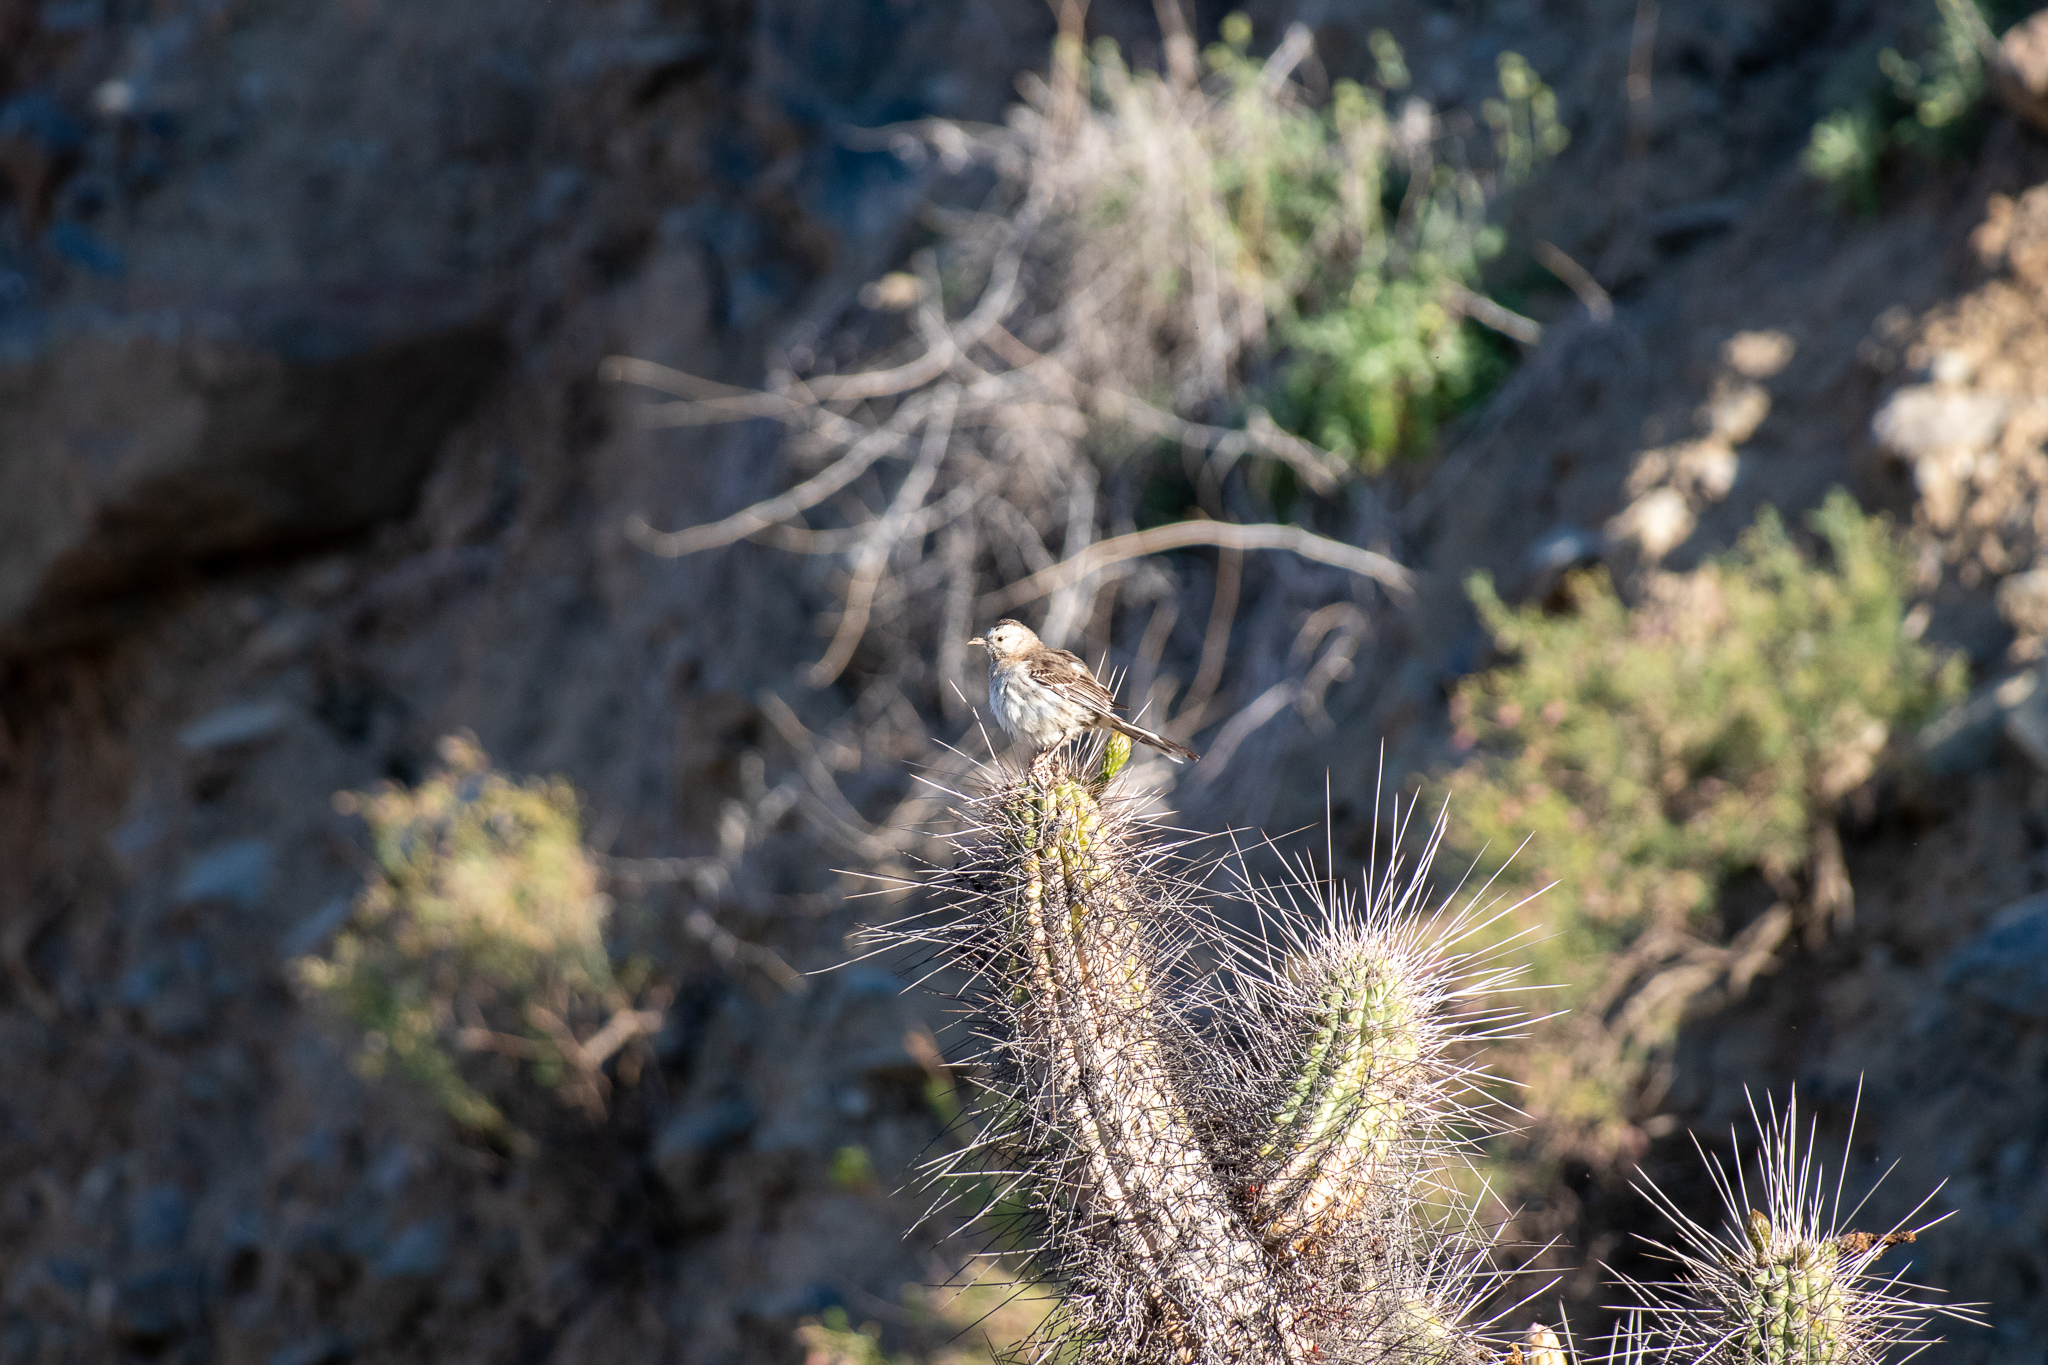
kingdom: Animalia
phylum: Chordata
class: Aves
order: Passeriformes
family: Mimidae
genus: Mimus
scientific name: Mimus thenca
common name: Chilean mockingbird
